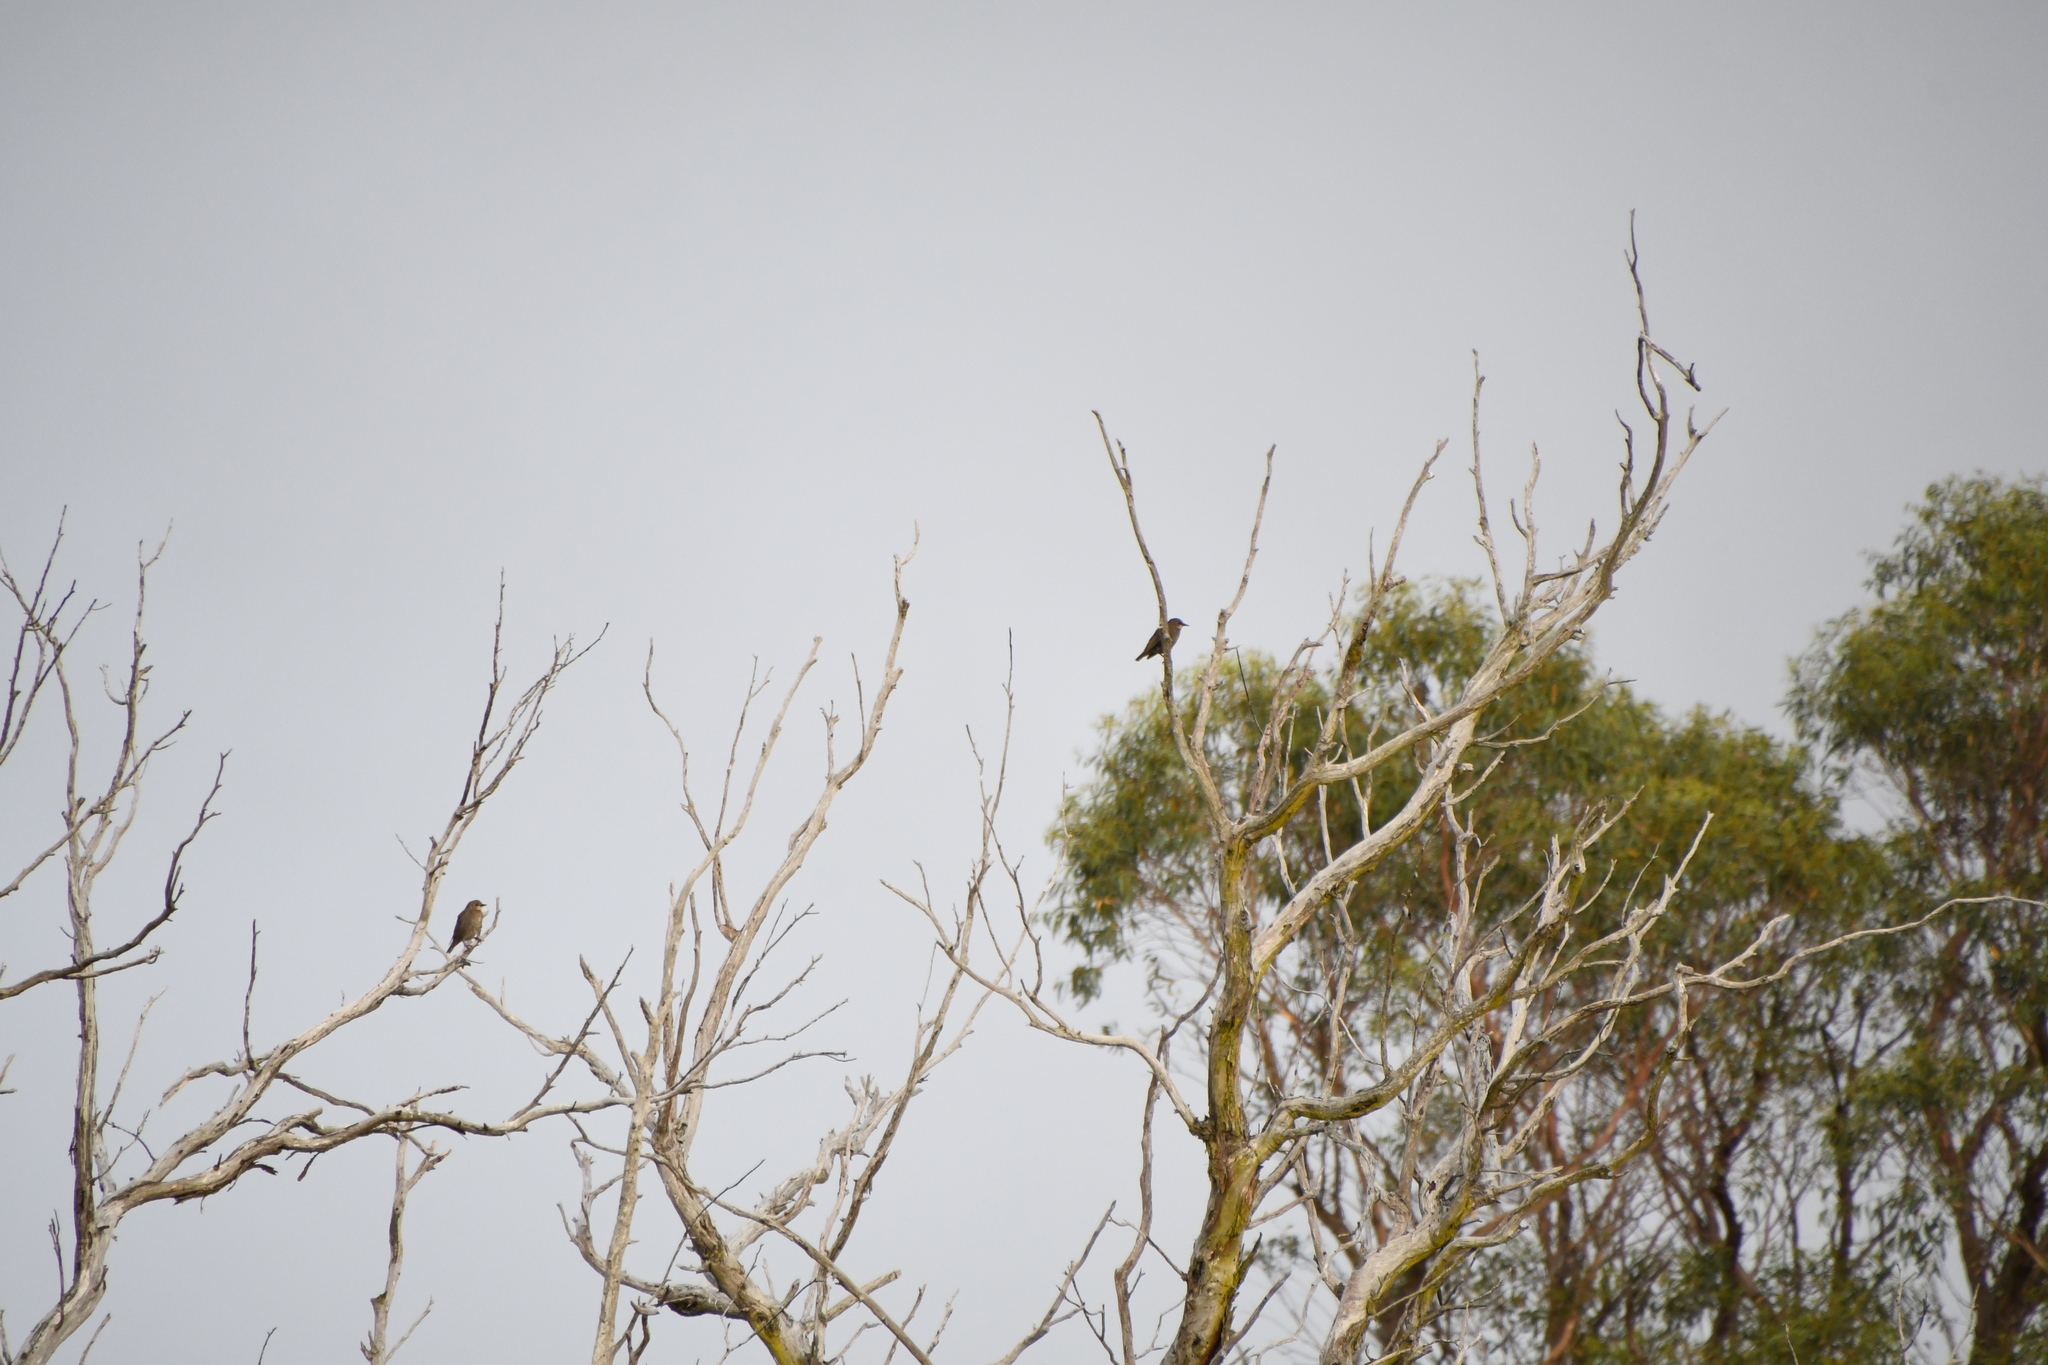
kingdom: Animalia
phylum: Chordata
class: Aves
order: Passeriformes
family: Sturnidae
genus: Sturnus
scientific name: Sturnus vulgaris
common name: Common starling
